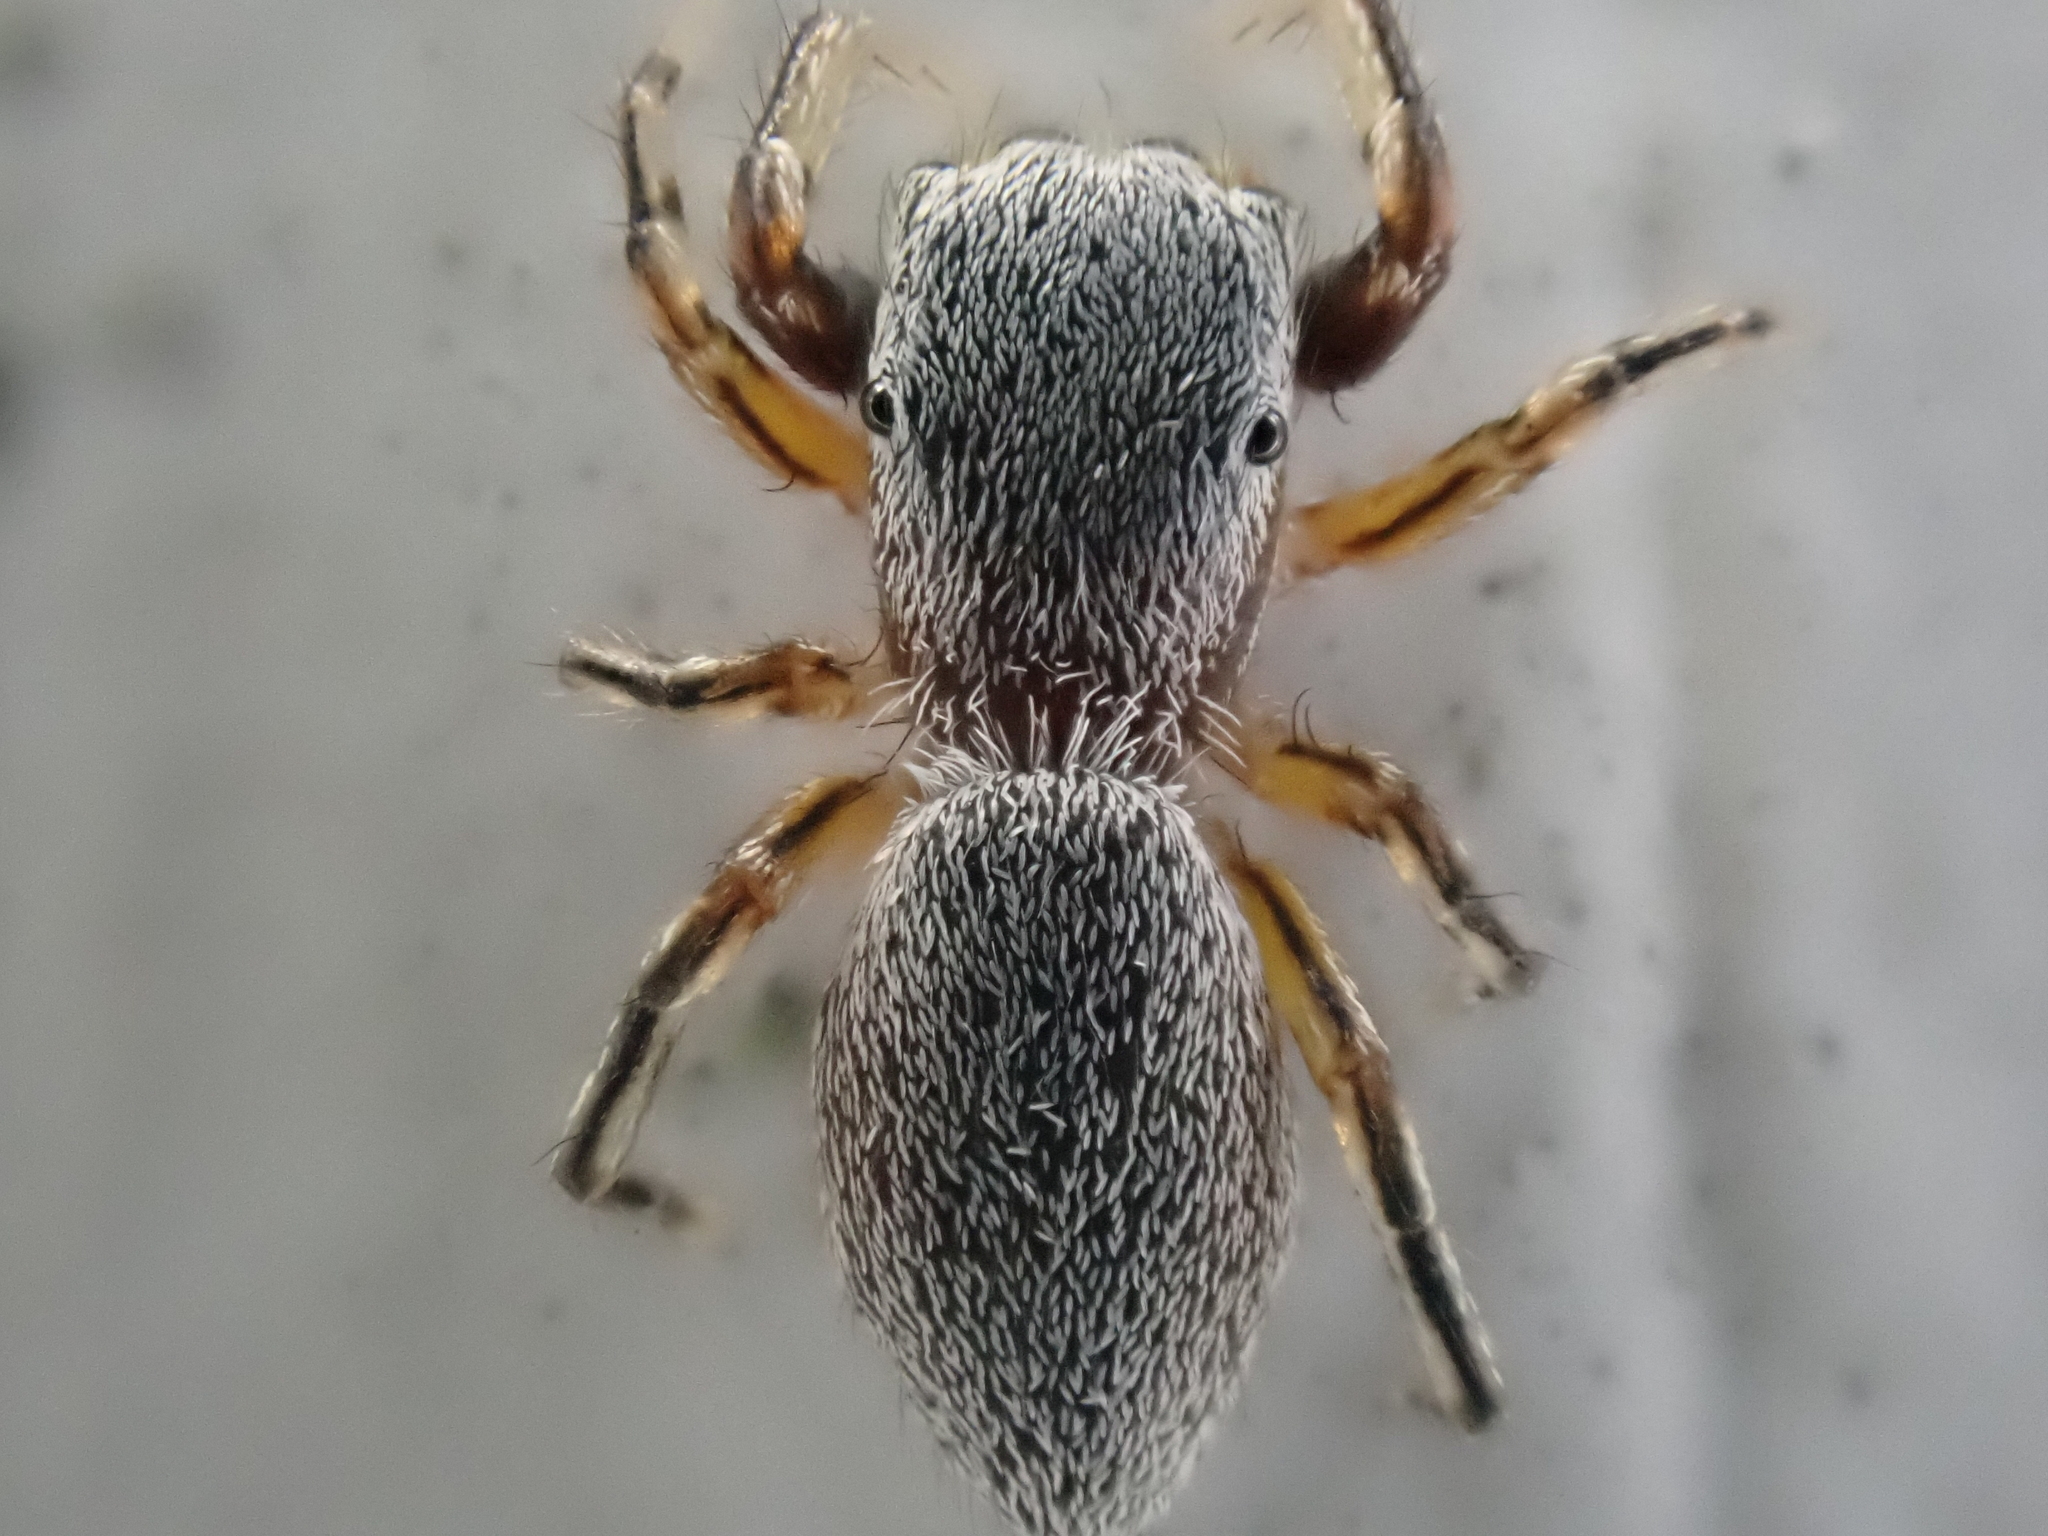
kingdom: Animalia
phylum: Arthropoda
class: Arachnida
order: Araneae
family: Salticidae
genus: Tutelina
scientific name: Tutelina similis
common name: Thick-spined jumping spider
